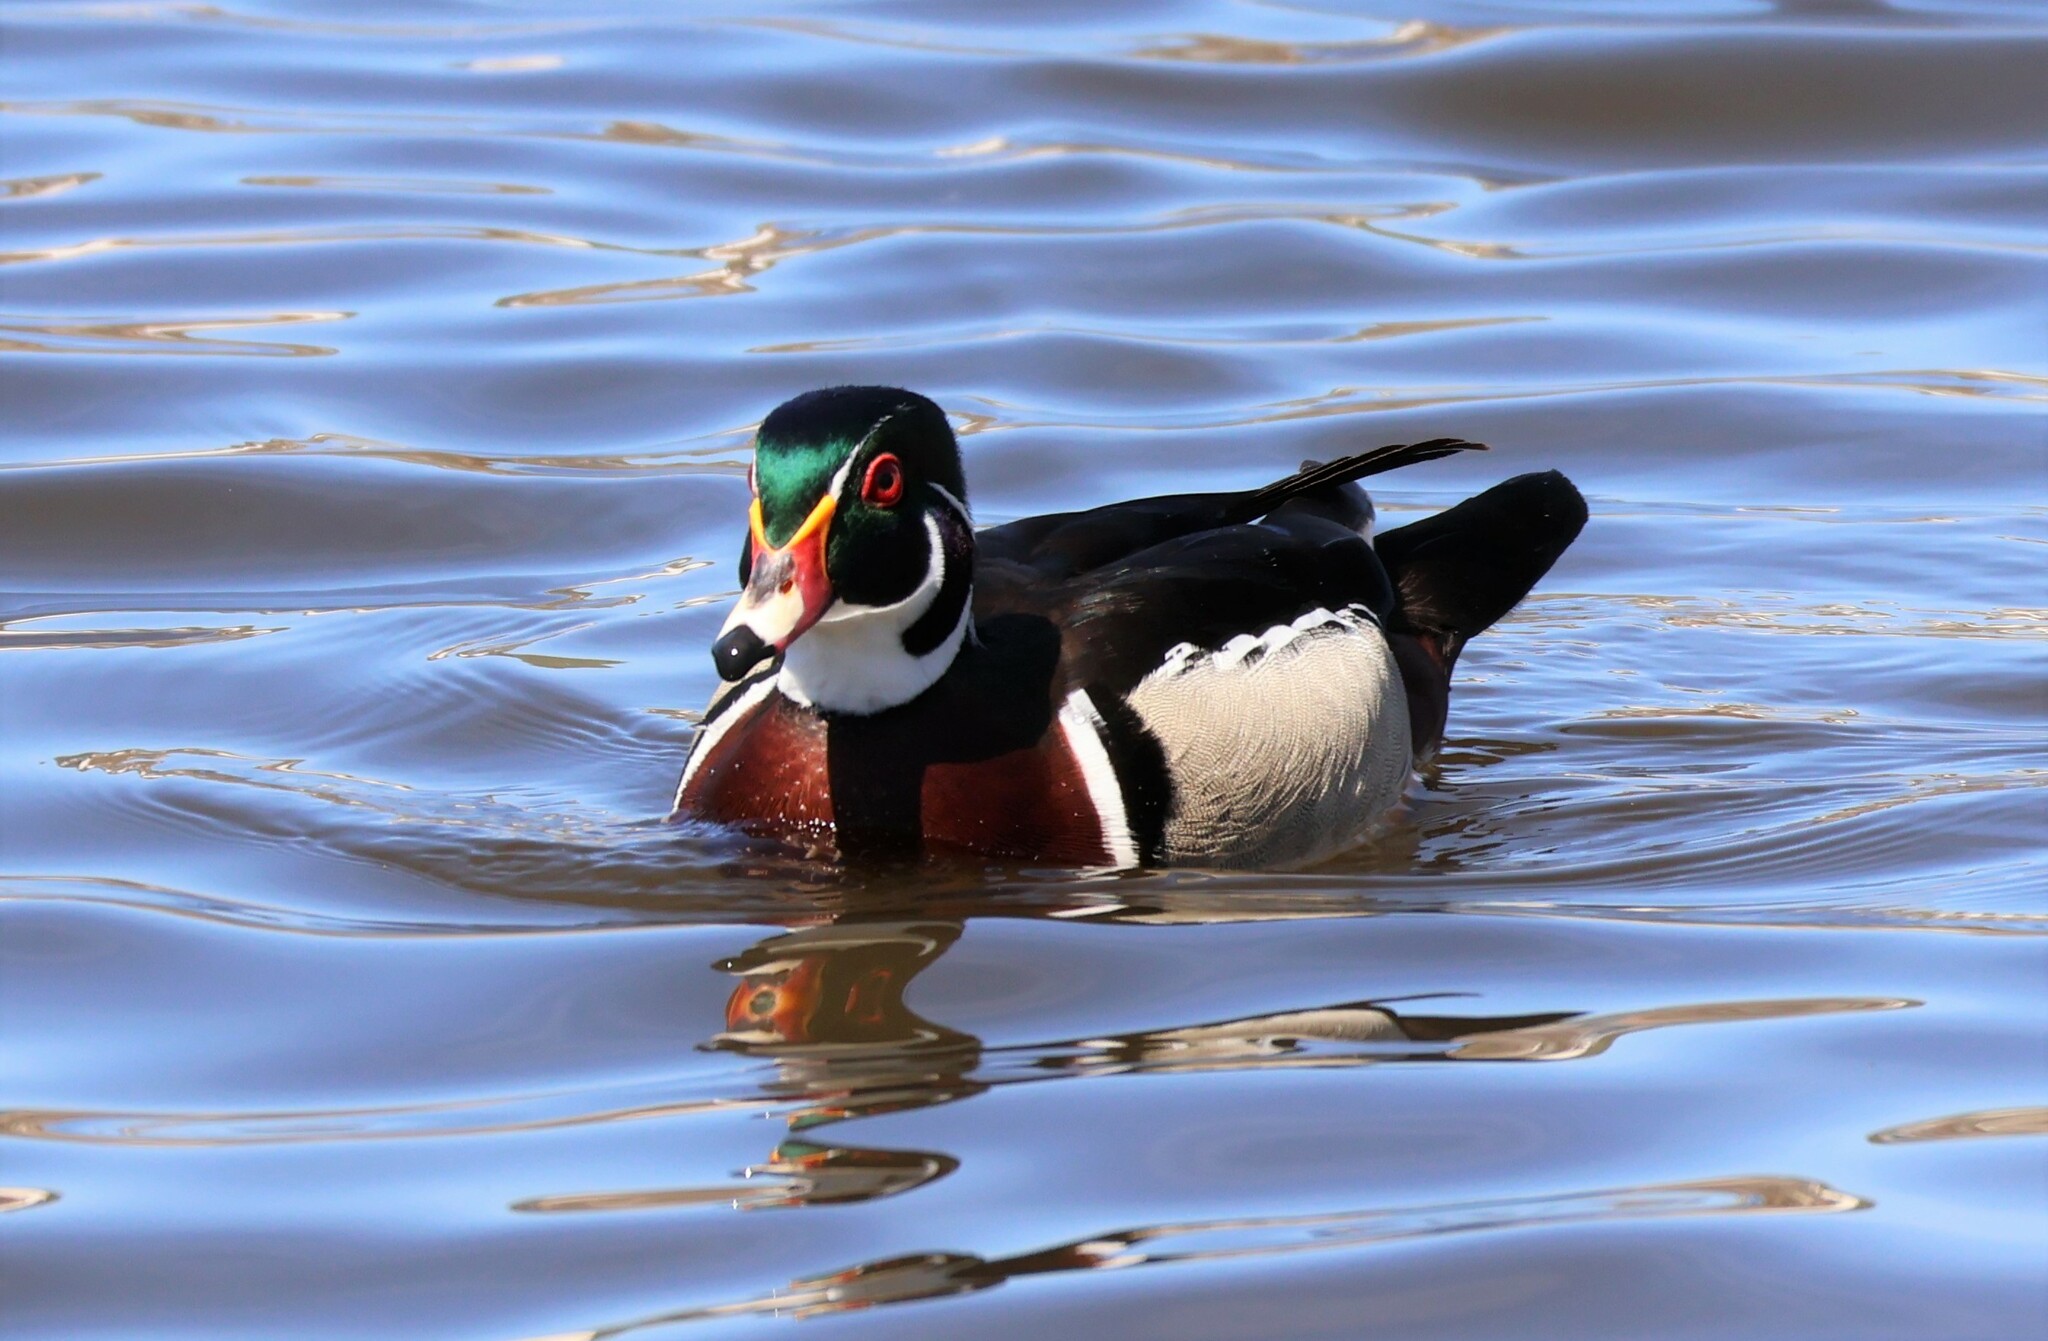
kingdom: Animalia
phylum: Chordata
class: Aves
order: Anseriformes
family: Anatidae
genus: Aix
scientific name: Aix sponsa
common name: Wood duck
